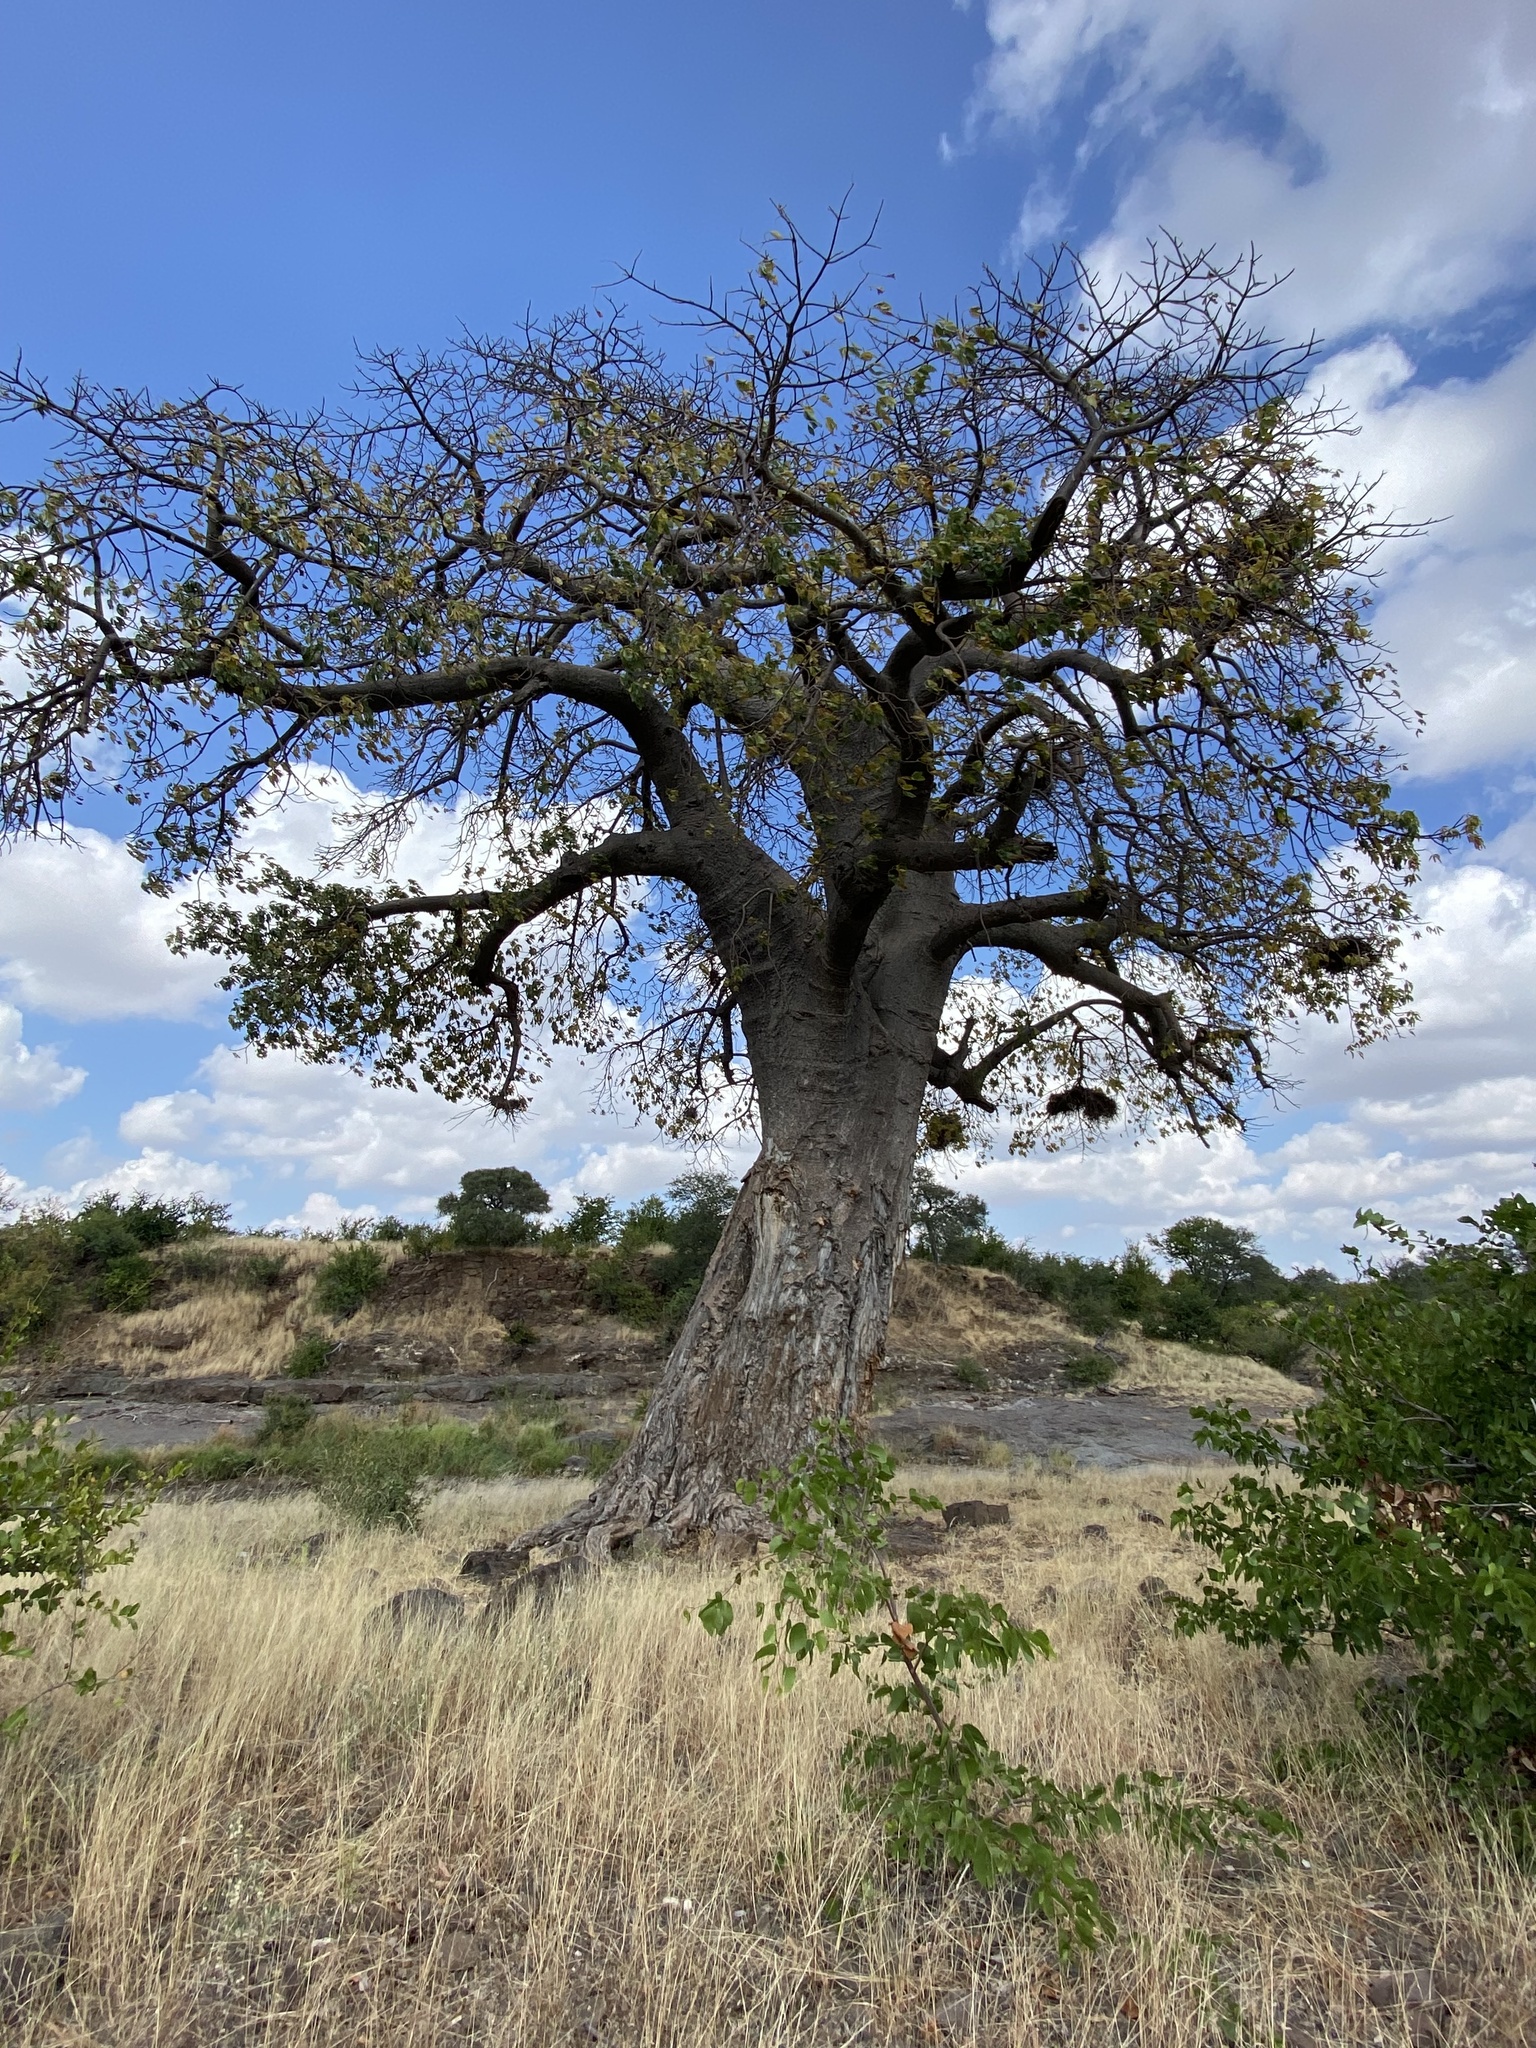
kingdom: Plantae
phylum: Tracheophyta
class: Magnoliopsida
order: Malvales
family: Malvaceae
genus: Adansonia
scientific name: Adansonia digitata
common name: Dead-rat-tree
